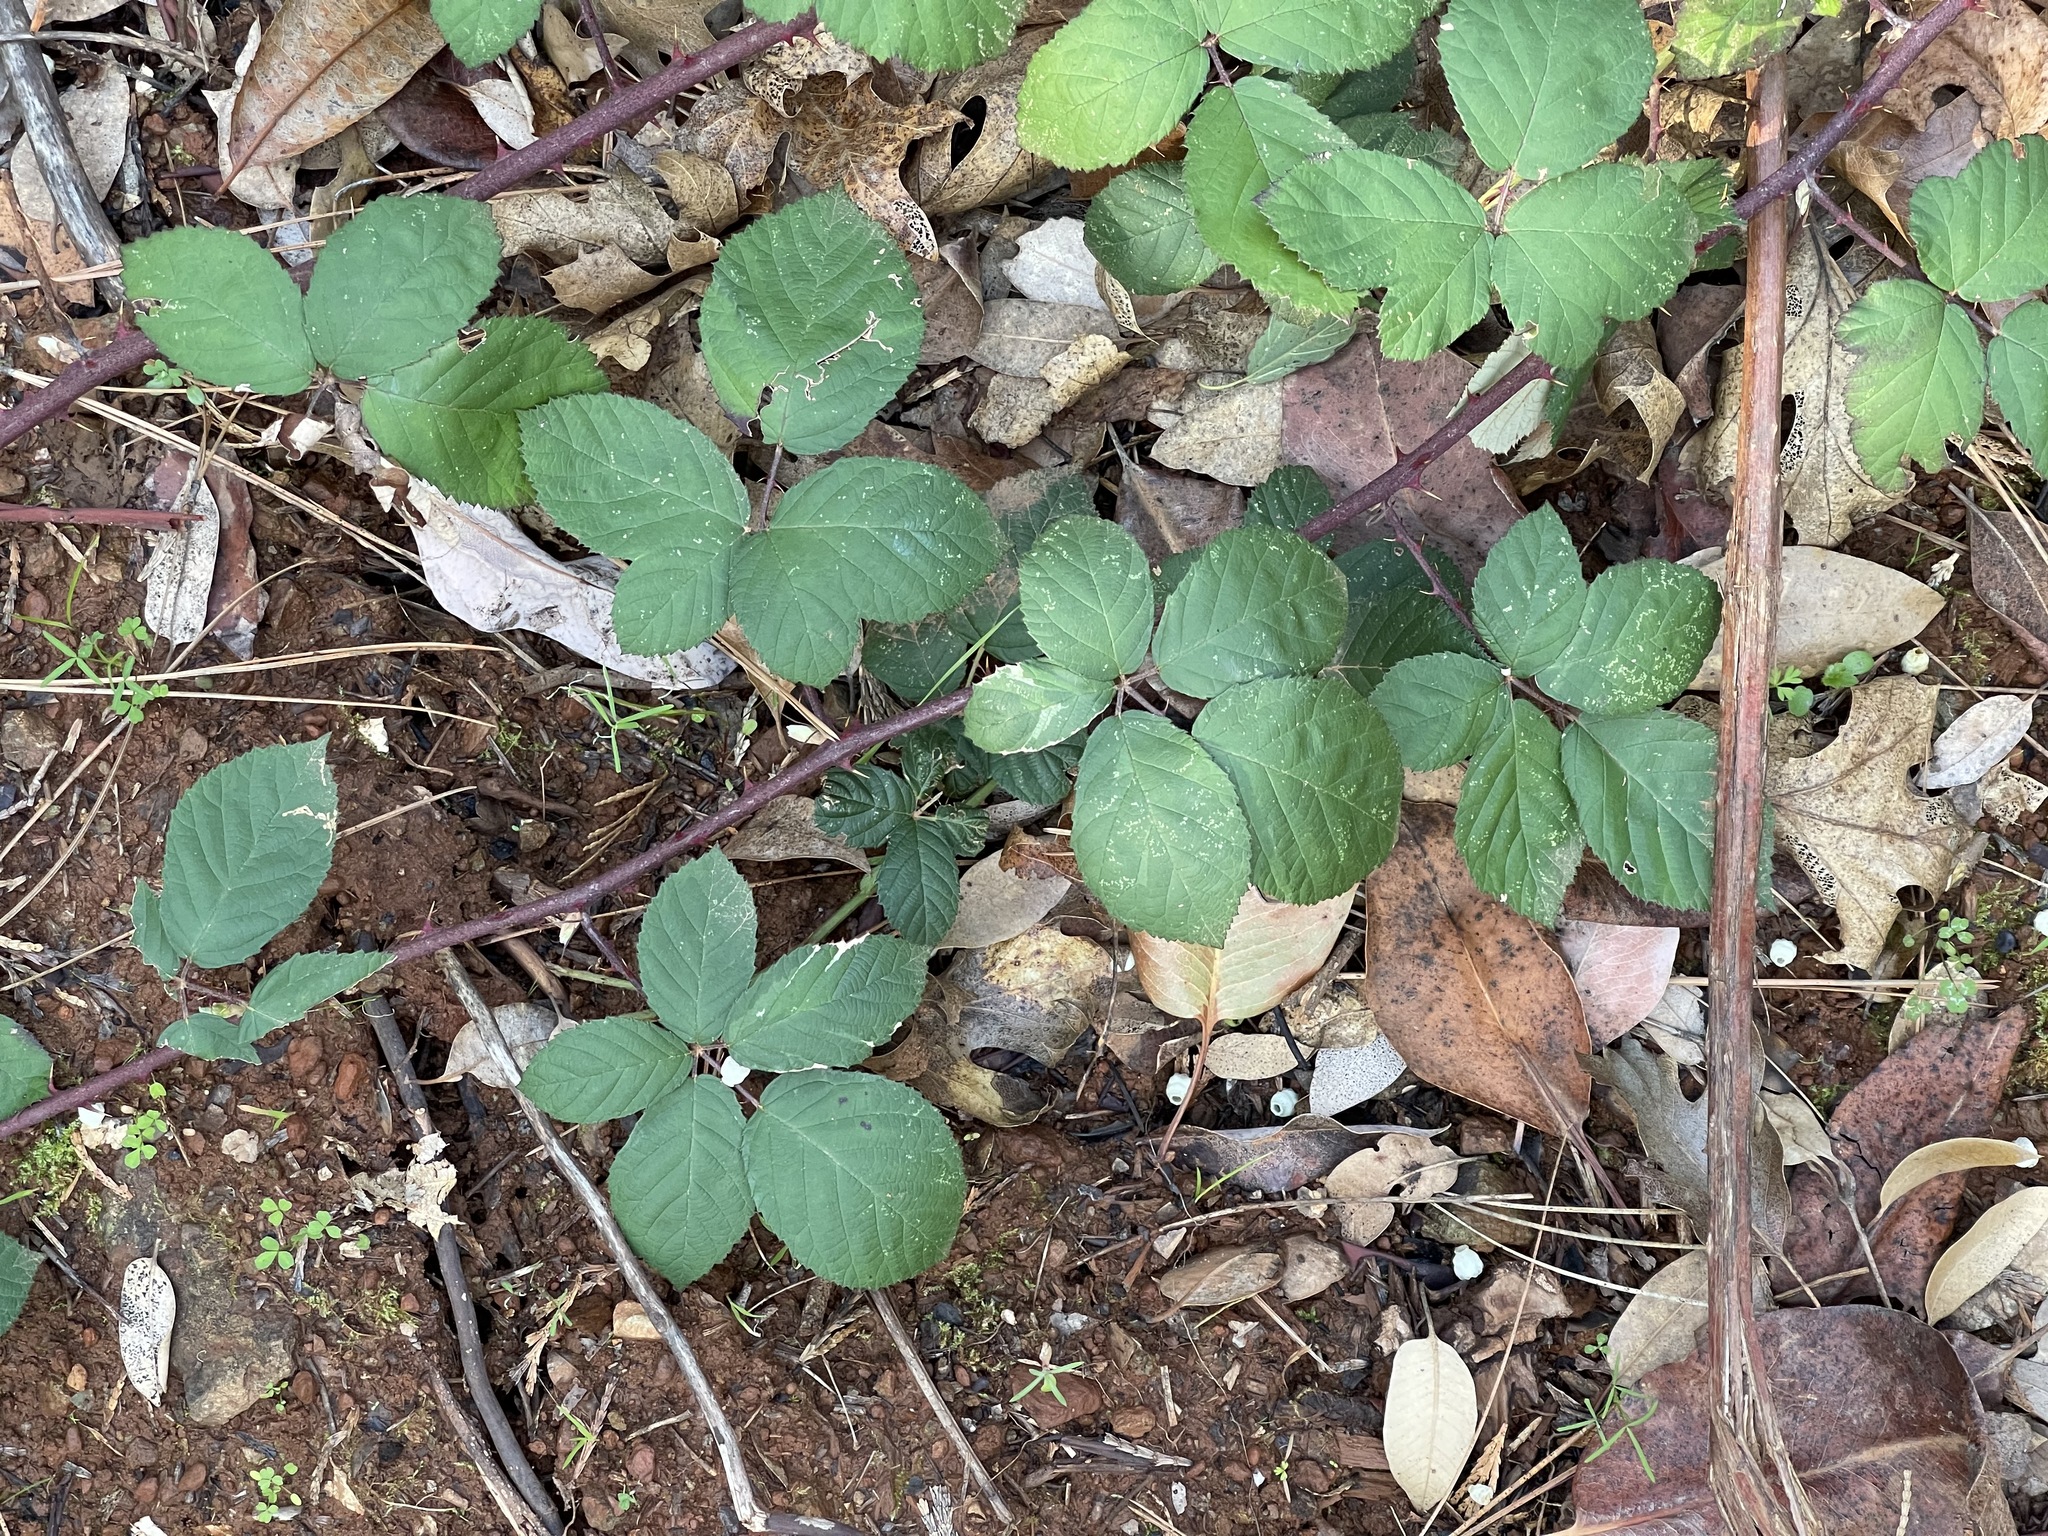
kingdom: Plantae
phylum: Tracheophyta
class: Magnoliopsida
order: Rosales
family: Rosaceae
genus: Rubus
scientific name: Rubus armeniacus
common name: Himalayan blackberry
